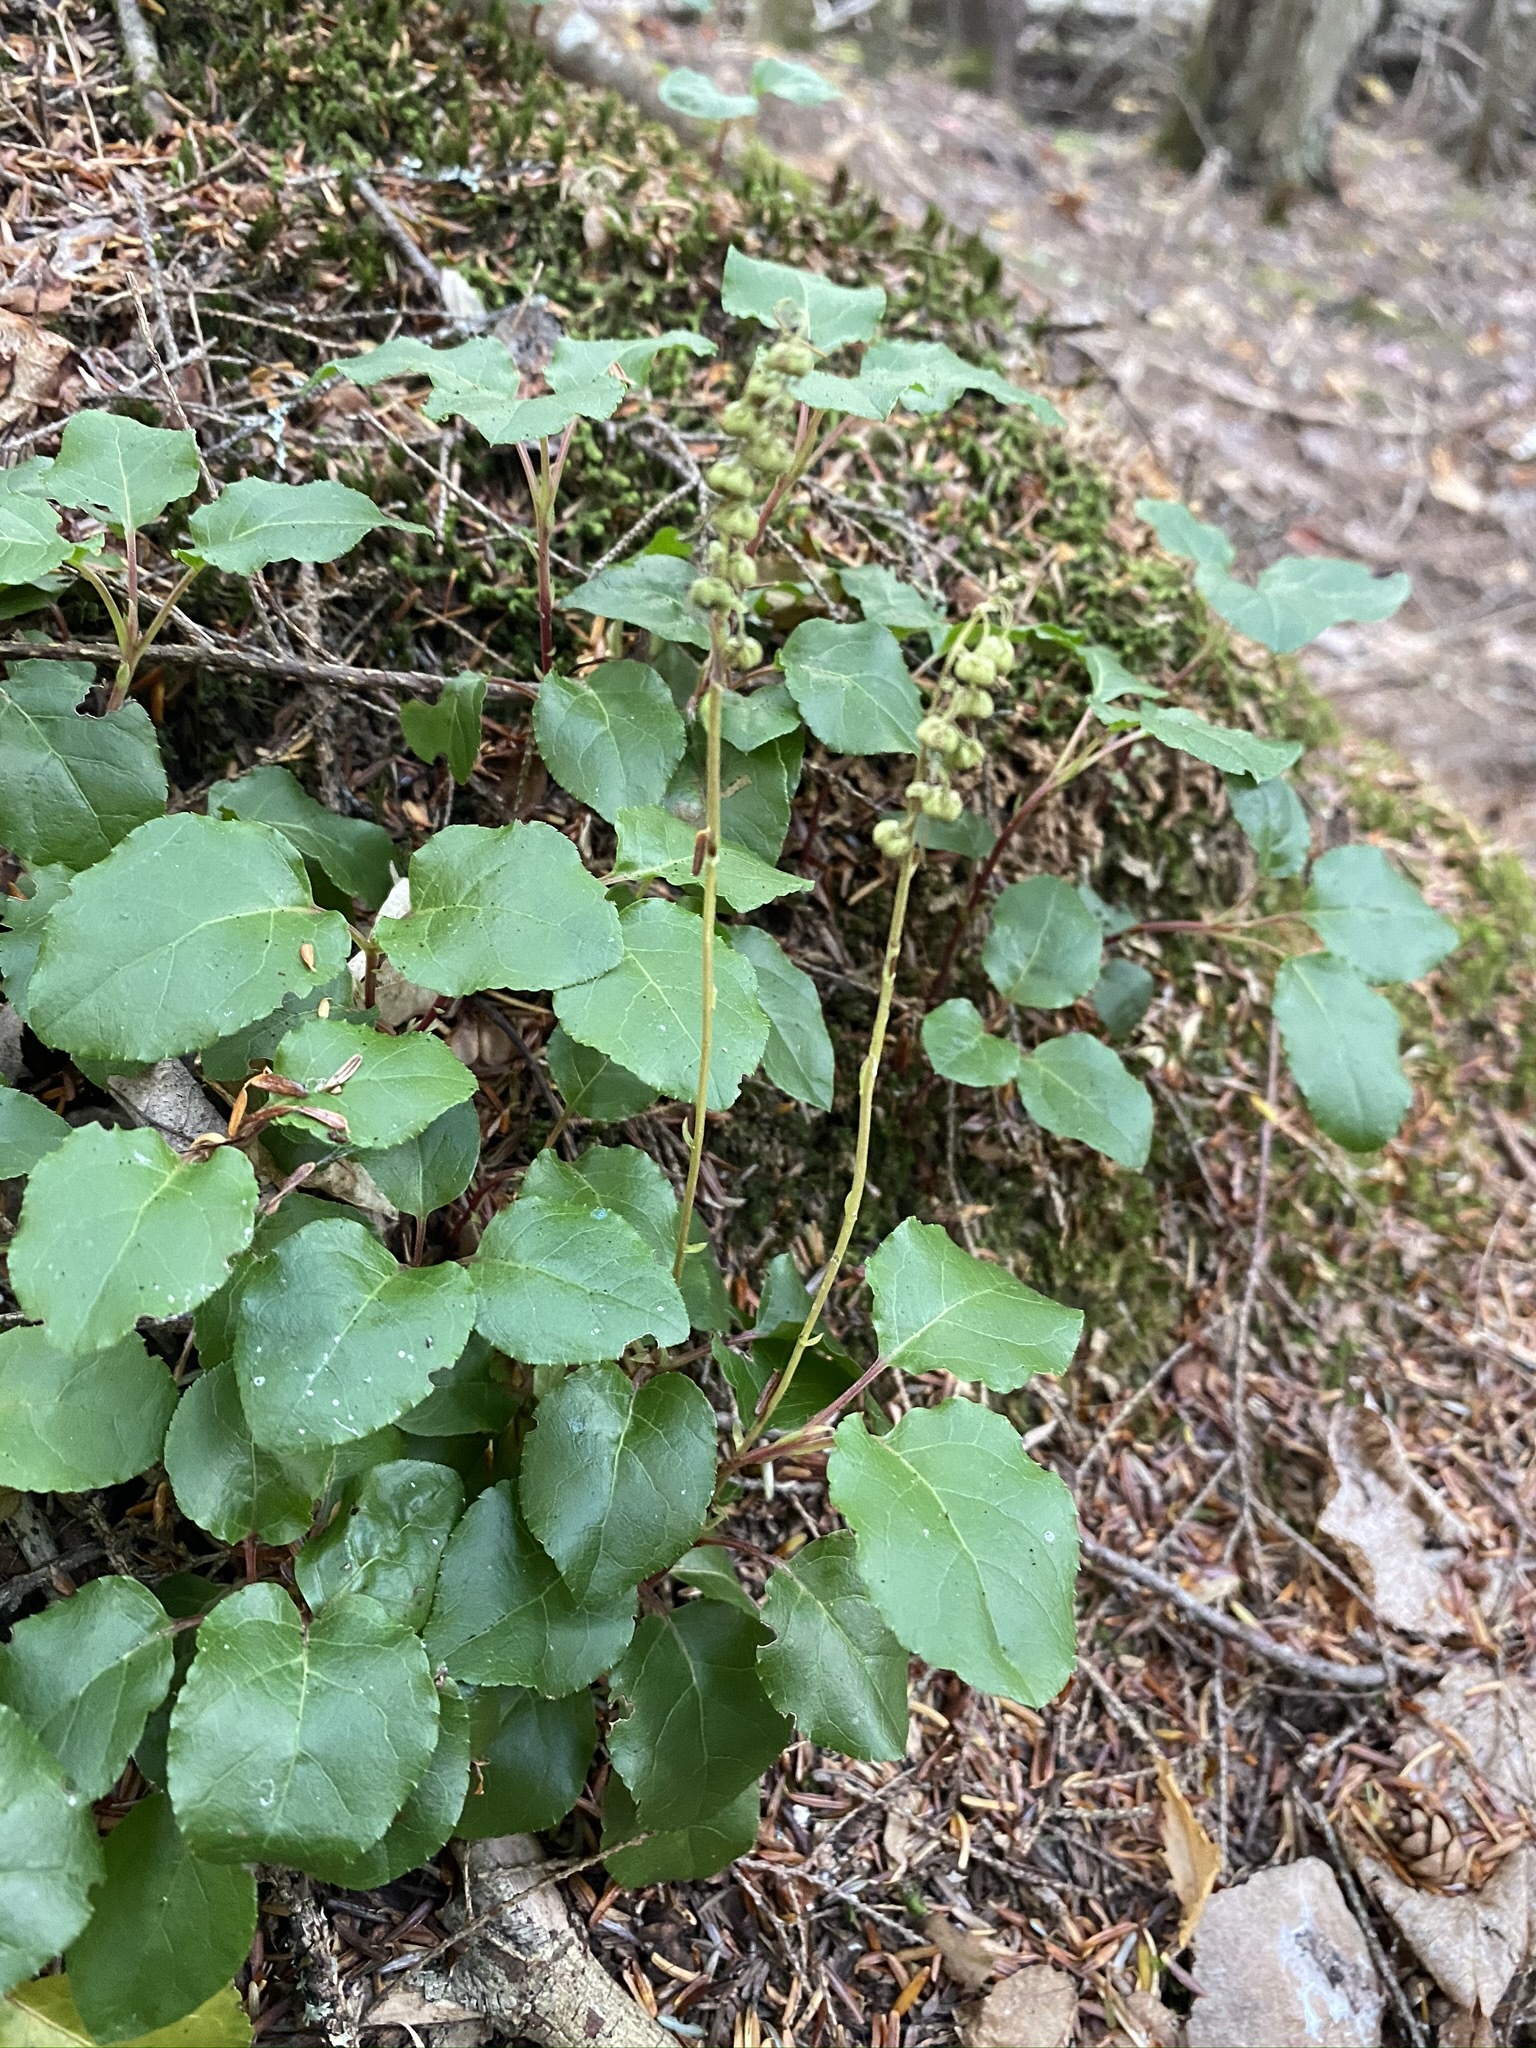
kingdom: Plantae
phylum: Tracheophyta
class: Magnoliopsida
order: Ericales
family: Ericaceae
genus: Orthilia
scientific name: Orthilia secunda
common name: One-sided orthilia
